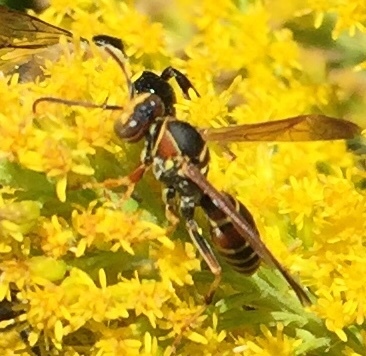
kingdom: Animalia
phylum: Arthropoda
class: Insecta
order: Hymenoptera
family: Eumenidae
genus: Polistes
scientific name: Polistes dorsalis
